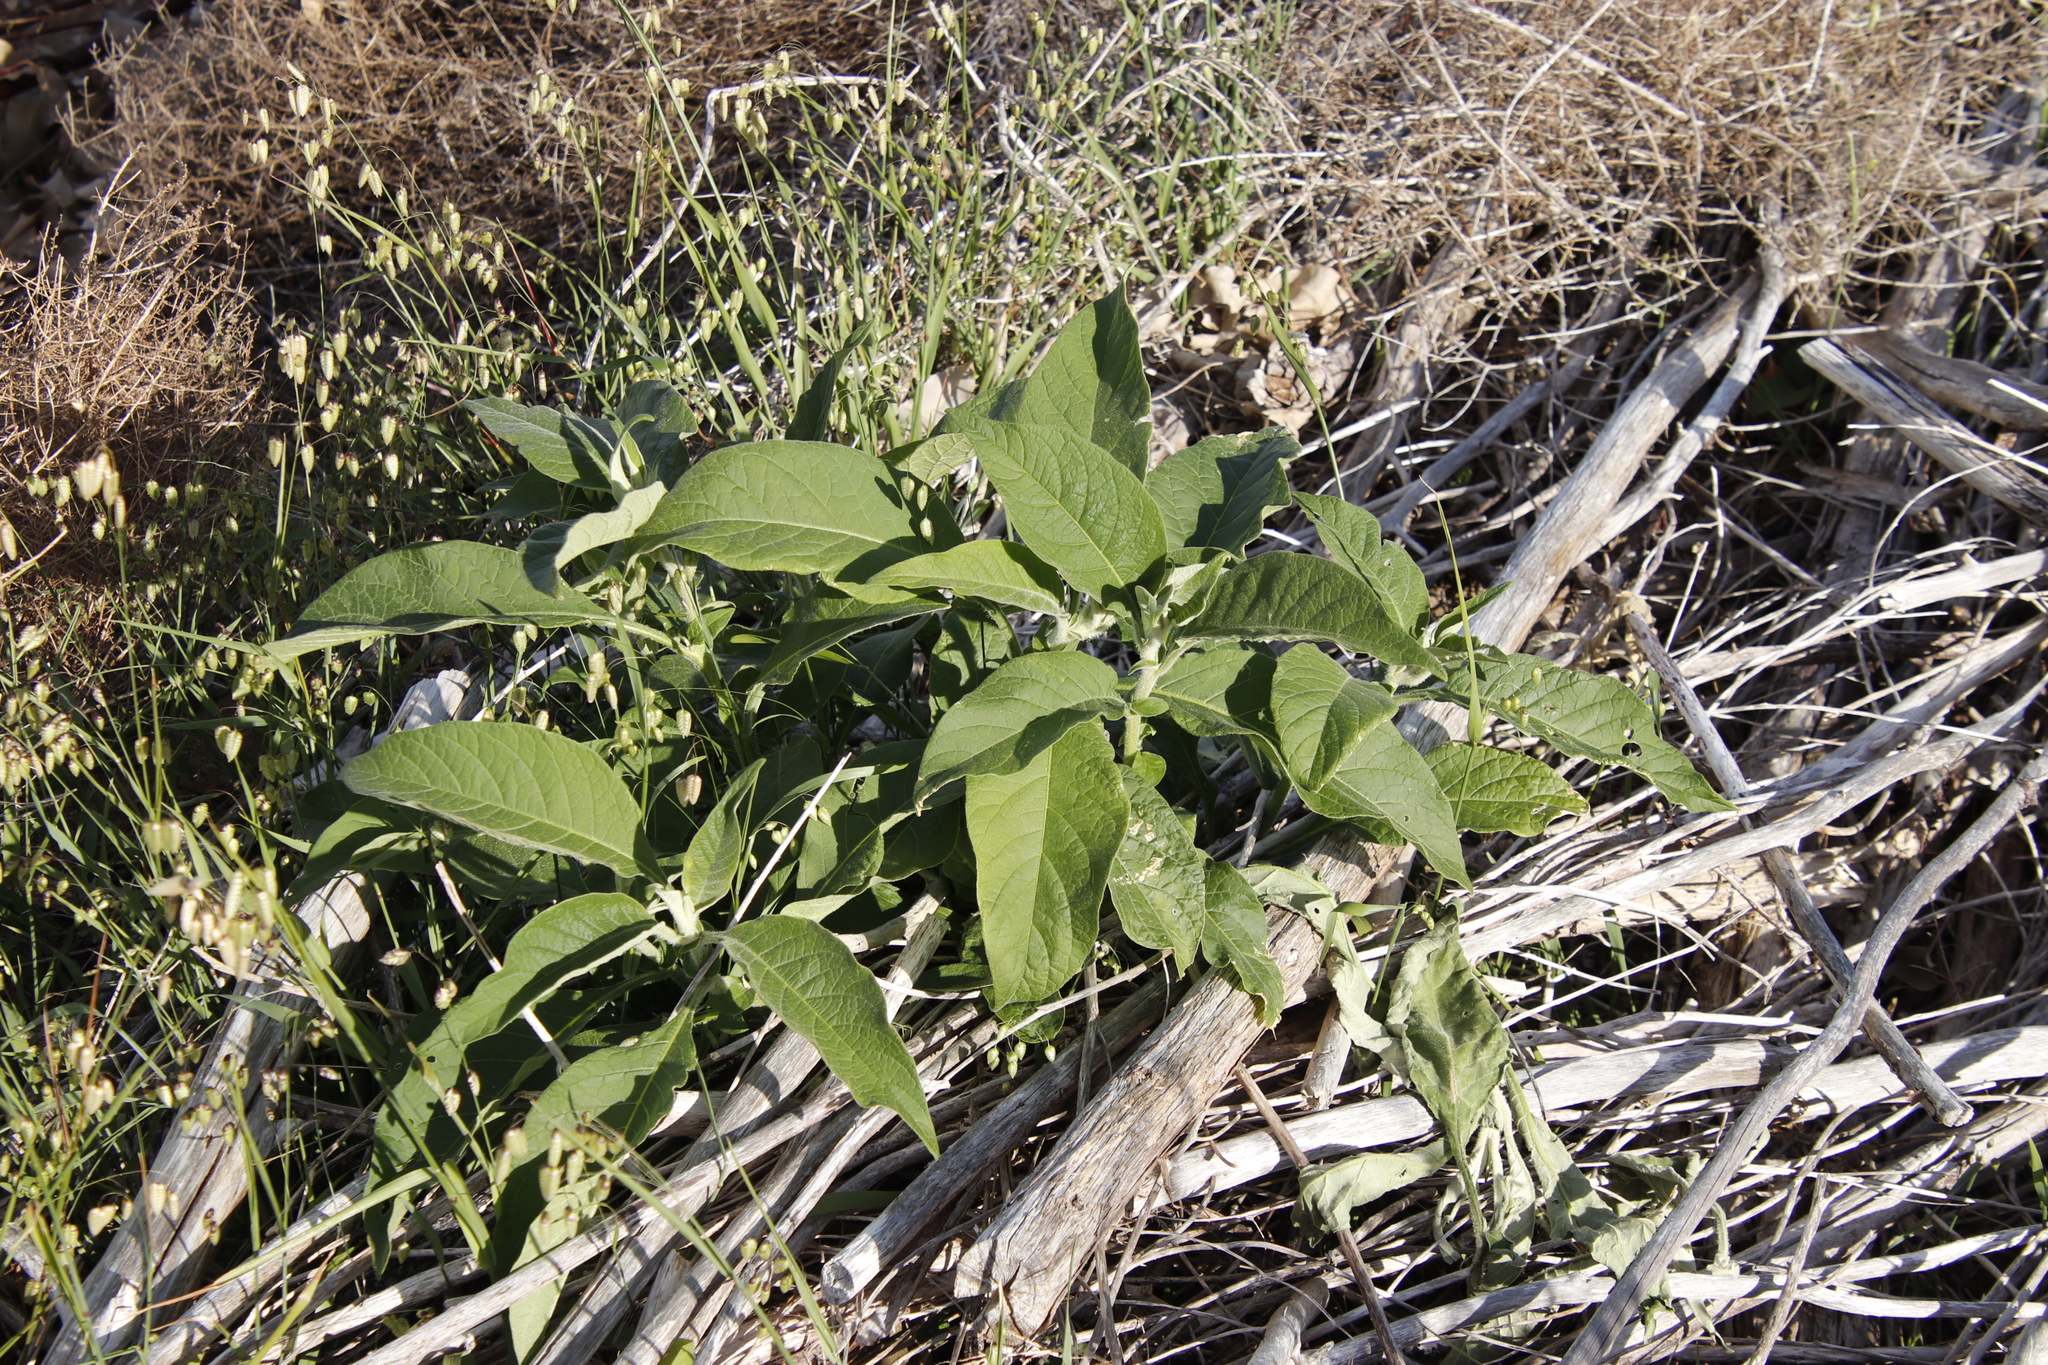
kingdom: Plantae
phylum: Tracheophyta
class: Magnoliopsida
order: Solanales
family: Solanaceae
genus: Solanum
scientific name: Solanum mauritianum
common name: Earleaf nightshade
